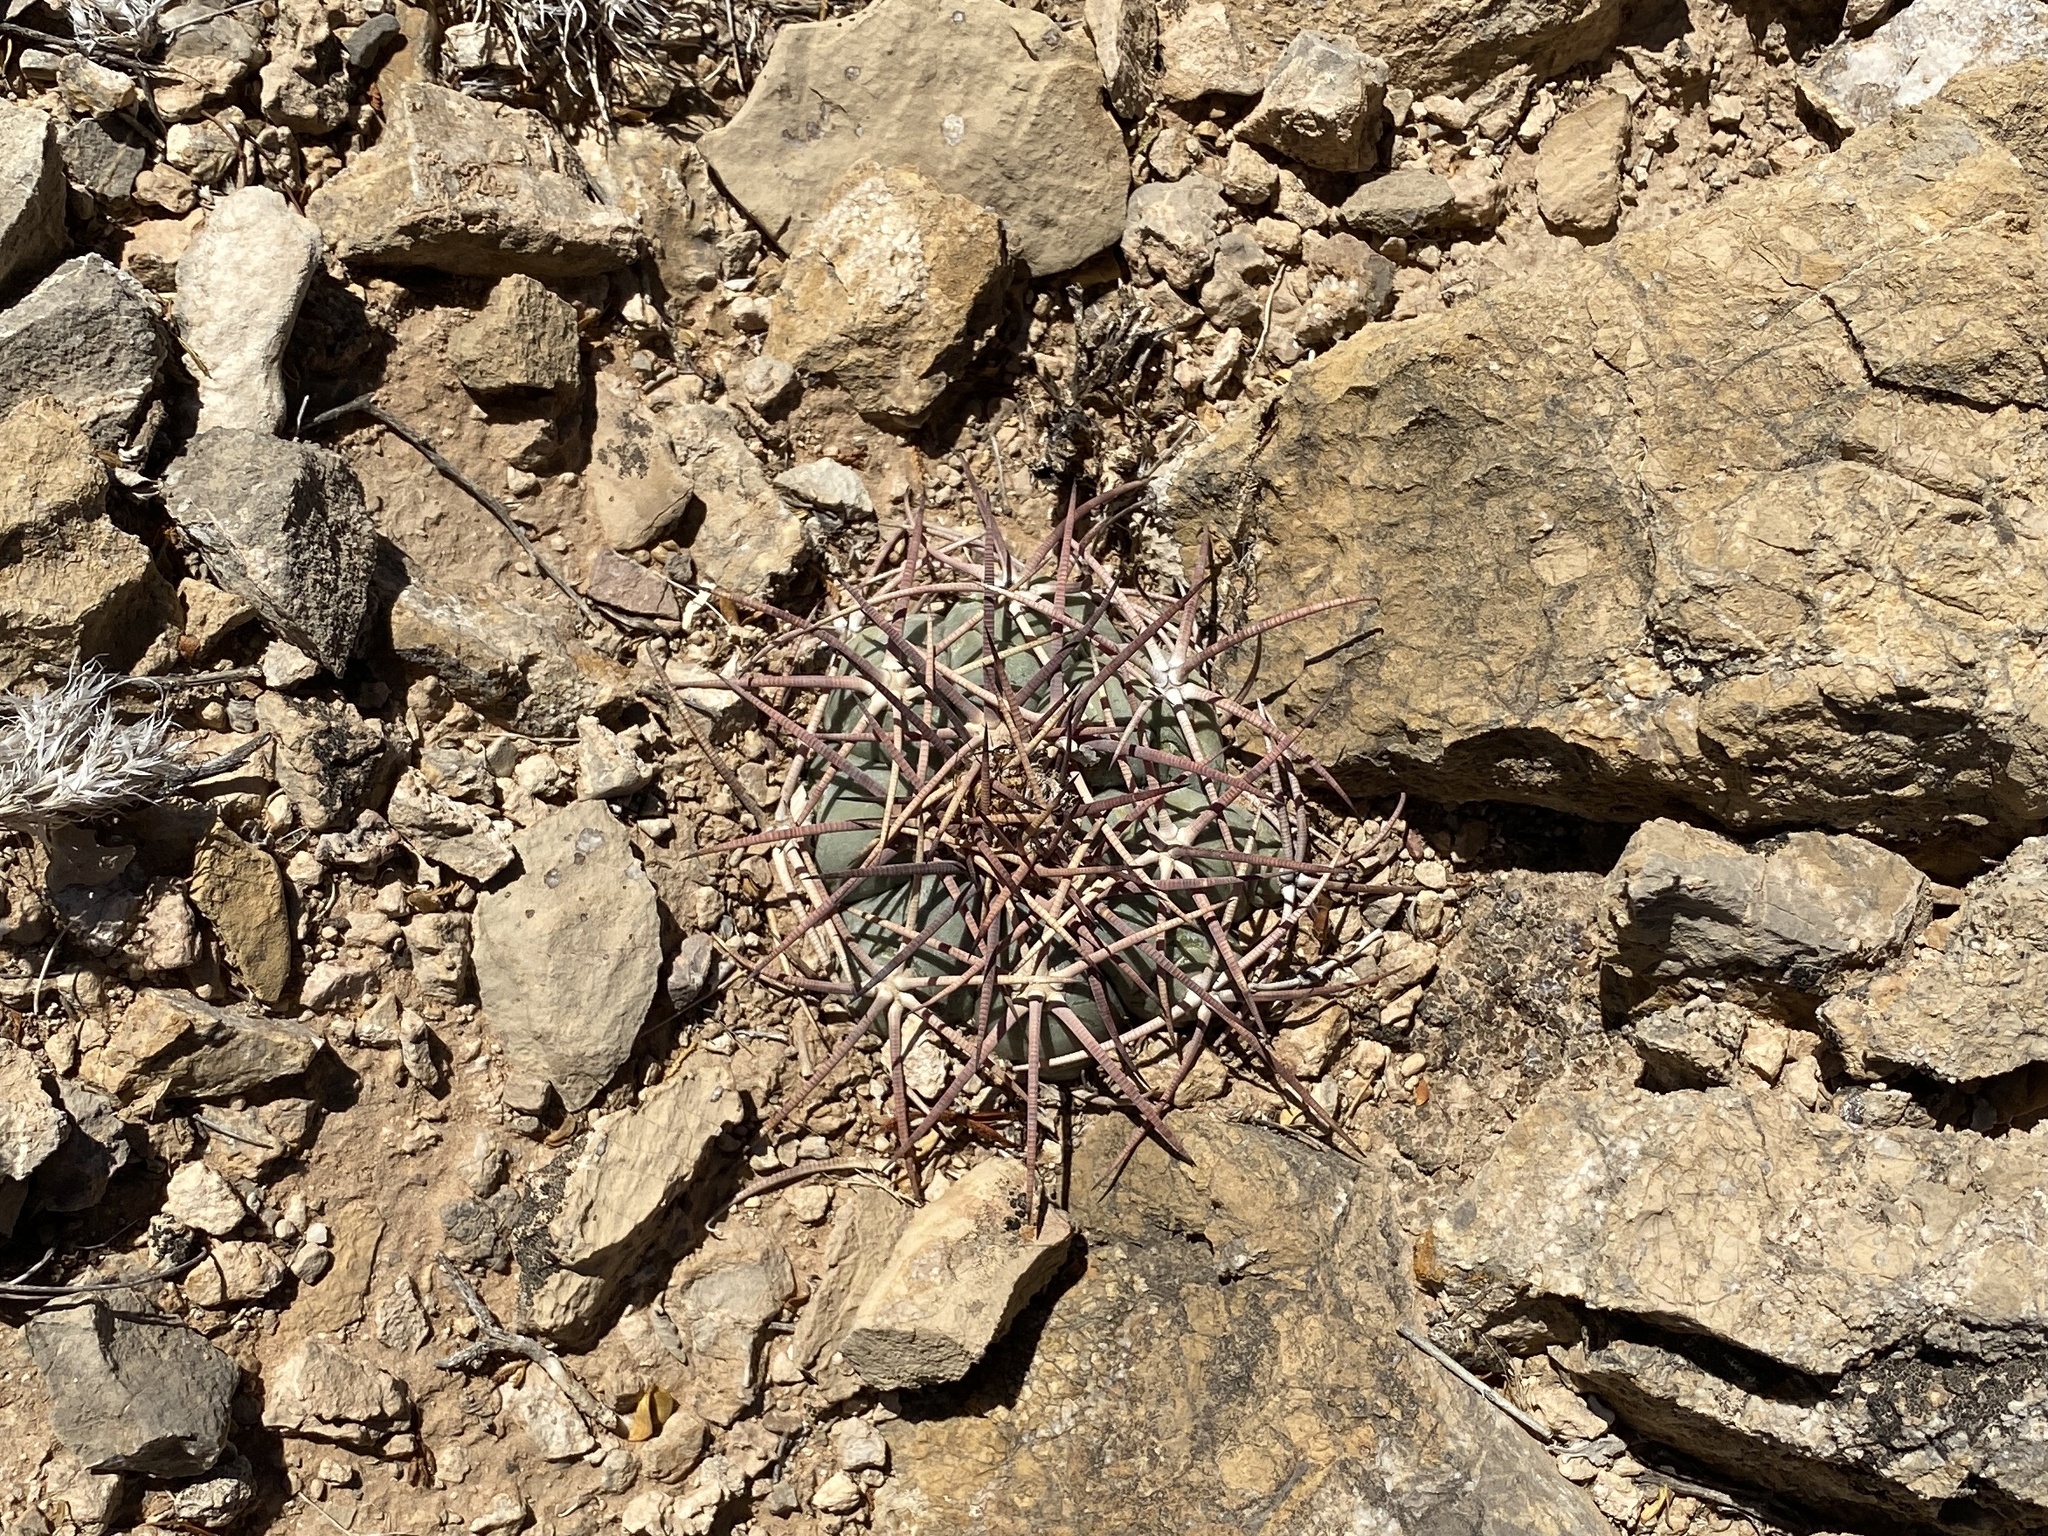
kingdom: Plantae
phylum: Tracheophyta
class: Magnoliopsida
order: Caryophyllales
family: Cactaceae
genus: Echinocactus
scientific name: Echinocactus horizonthalonius
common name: Devilshead
